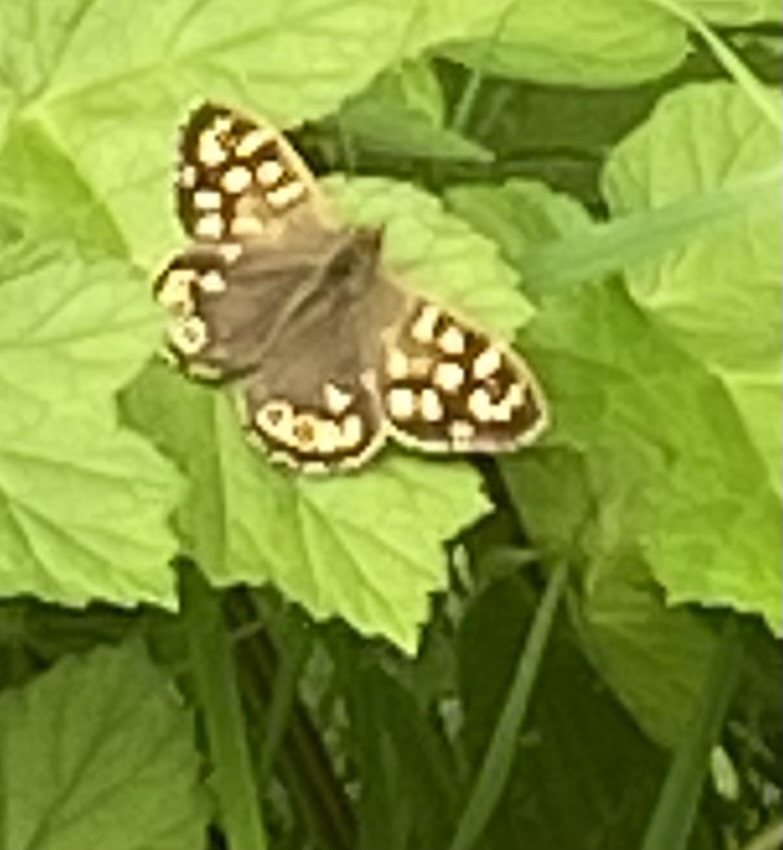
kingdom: Animalia
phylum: Arthropoda
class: Insecta
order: Lepidoptera
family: Nymphalidae
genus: Pararge
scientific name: Pararge aegeria
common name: Speckled wood
